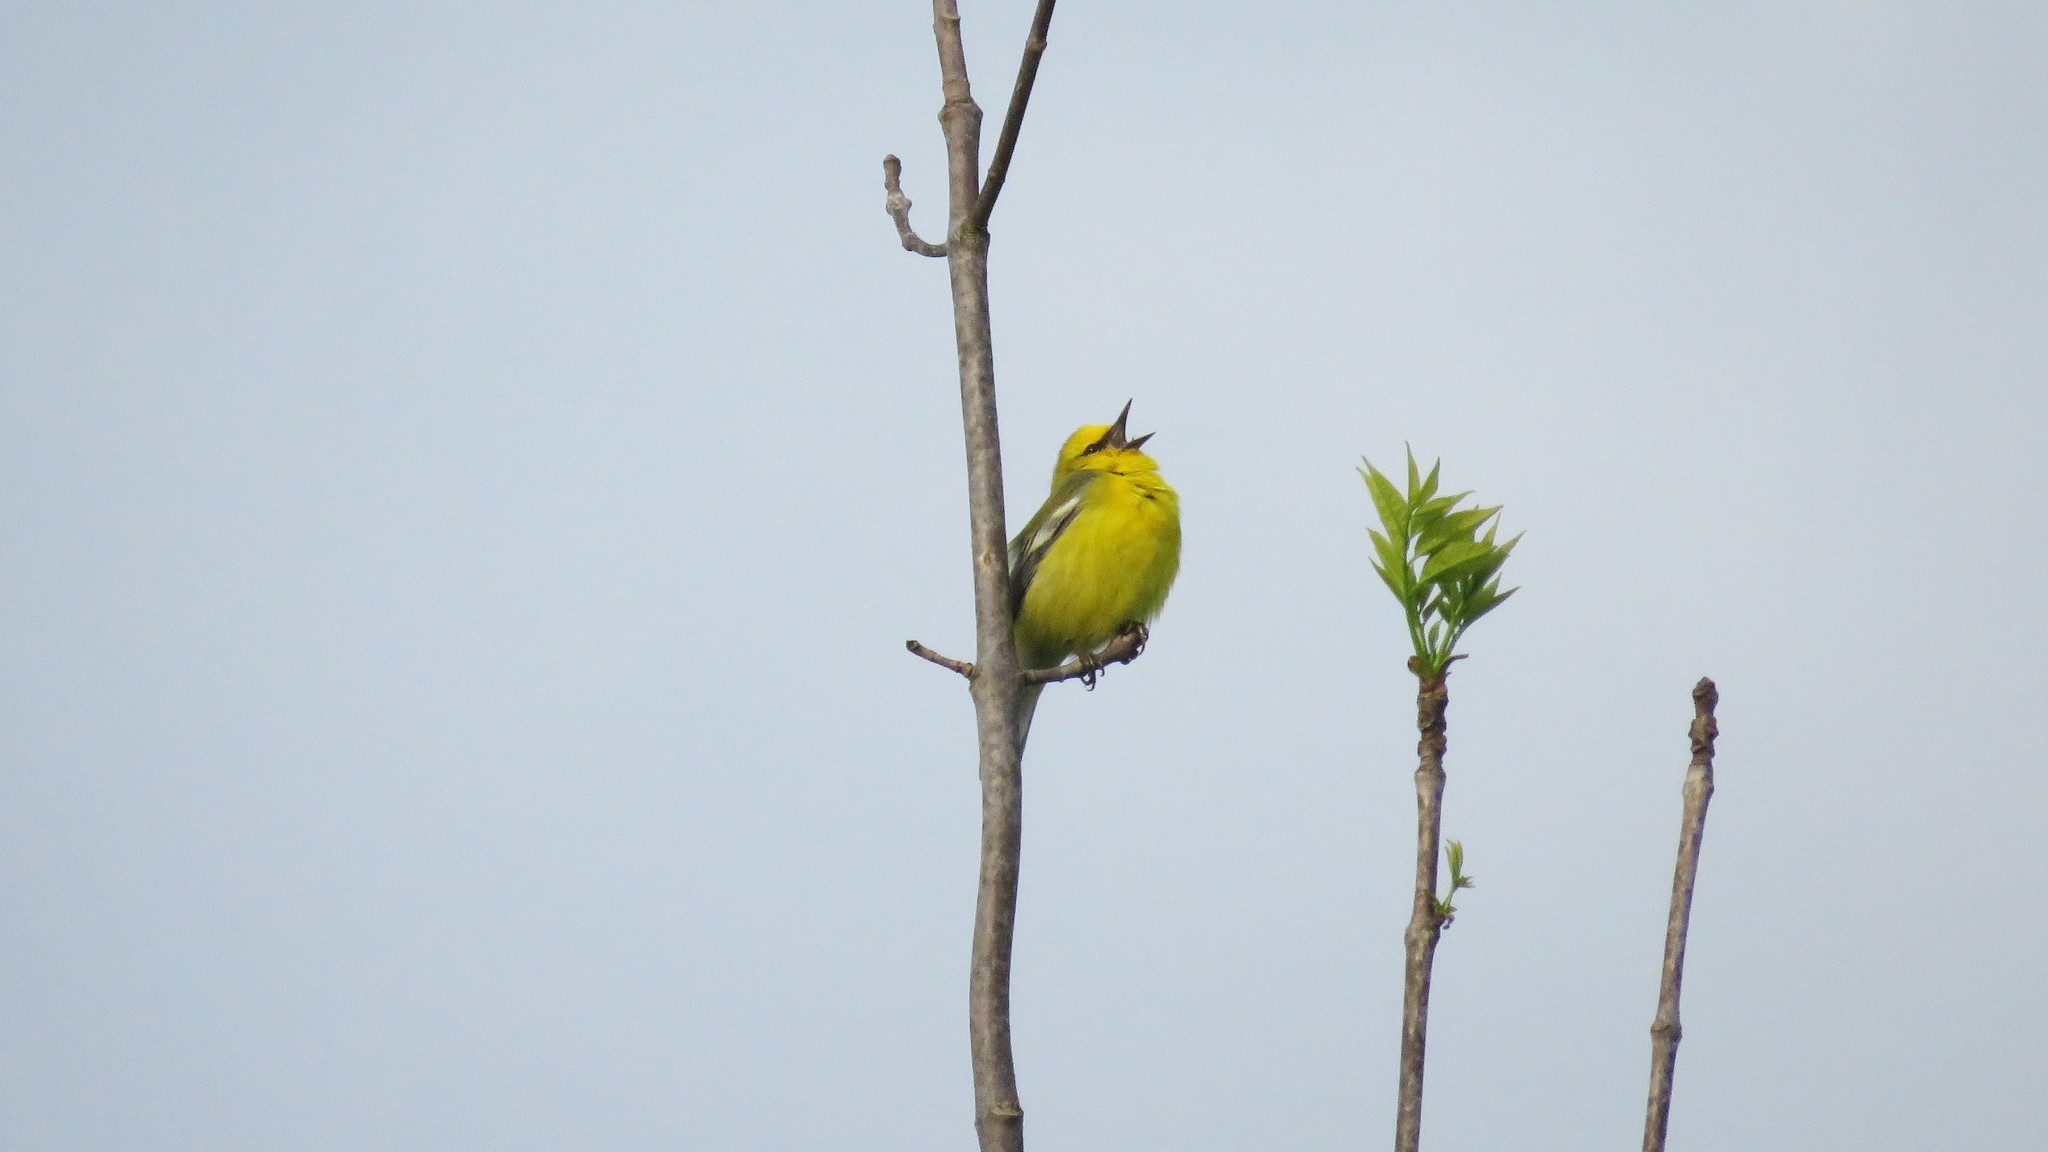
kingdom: Animalia
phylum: Chordata
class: Aves
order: Passeriformes
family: Parulidae
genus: Vermivora
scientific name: Vermivora cyanoptera
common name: Blue-winged warbler
